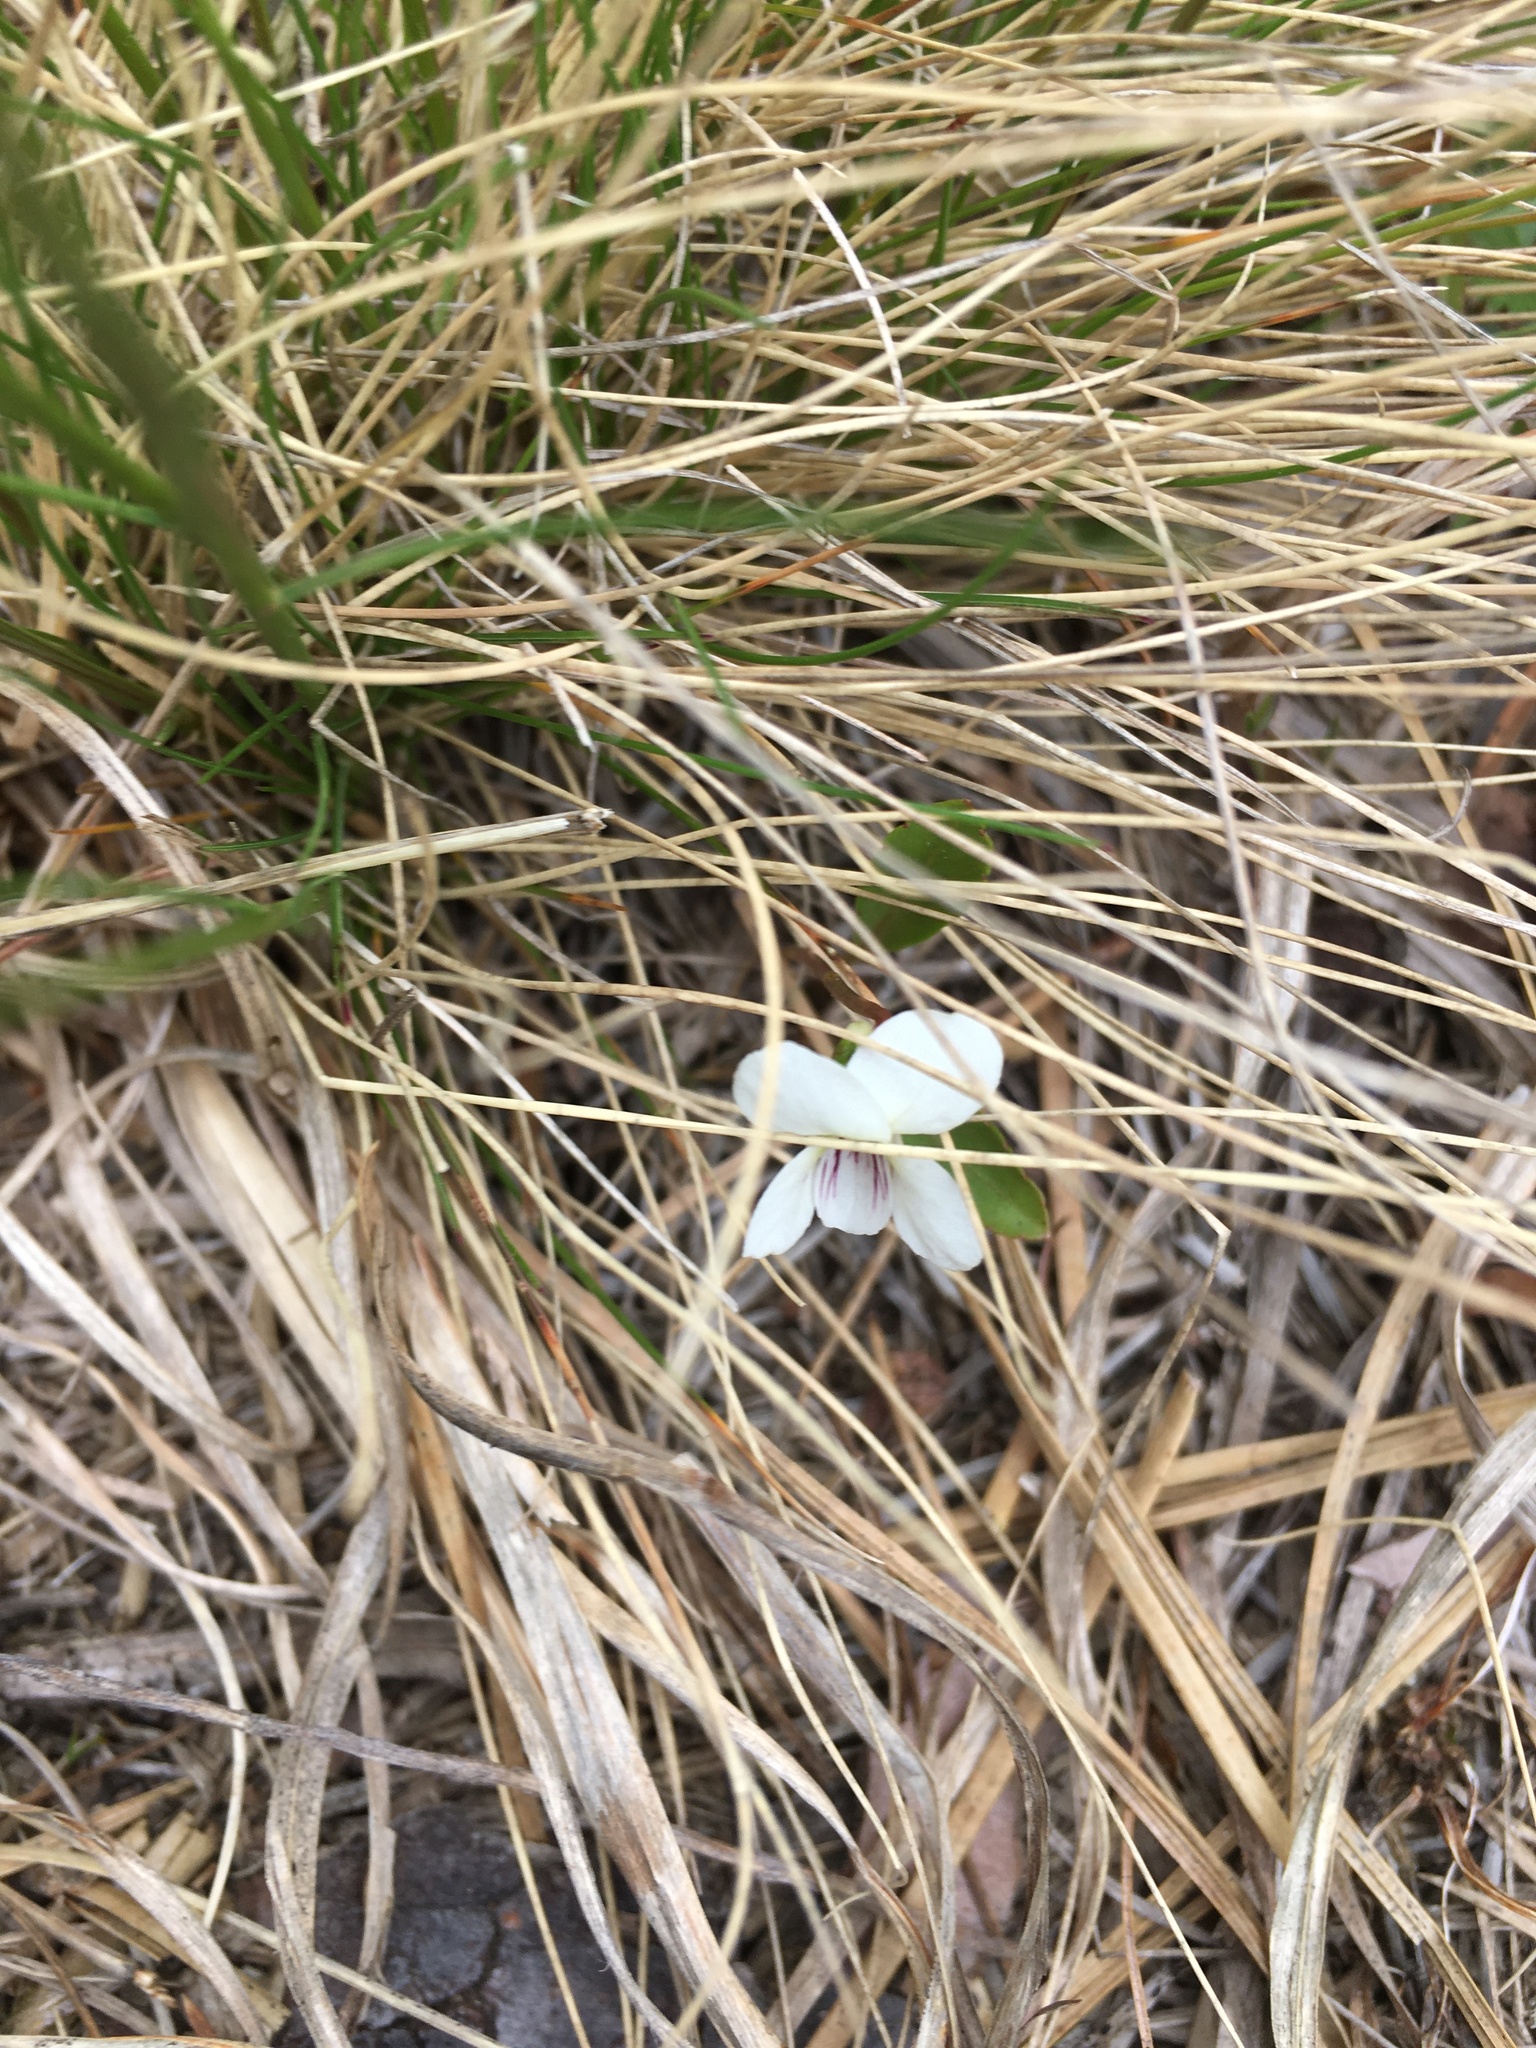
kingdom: Plantae
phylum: Tracheophyta
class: Magnoliopsida
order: Malpighiales
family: Violaceae
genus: Viola
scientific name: Viola lanceolata
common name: Bog white violet
